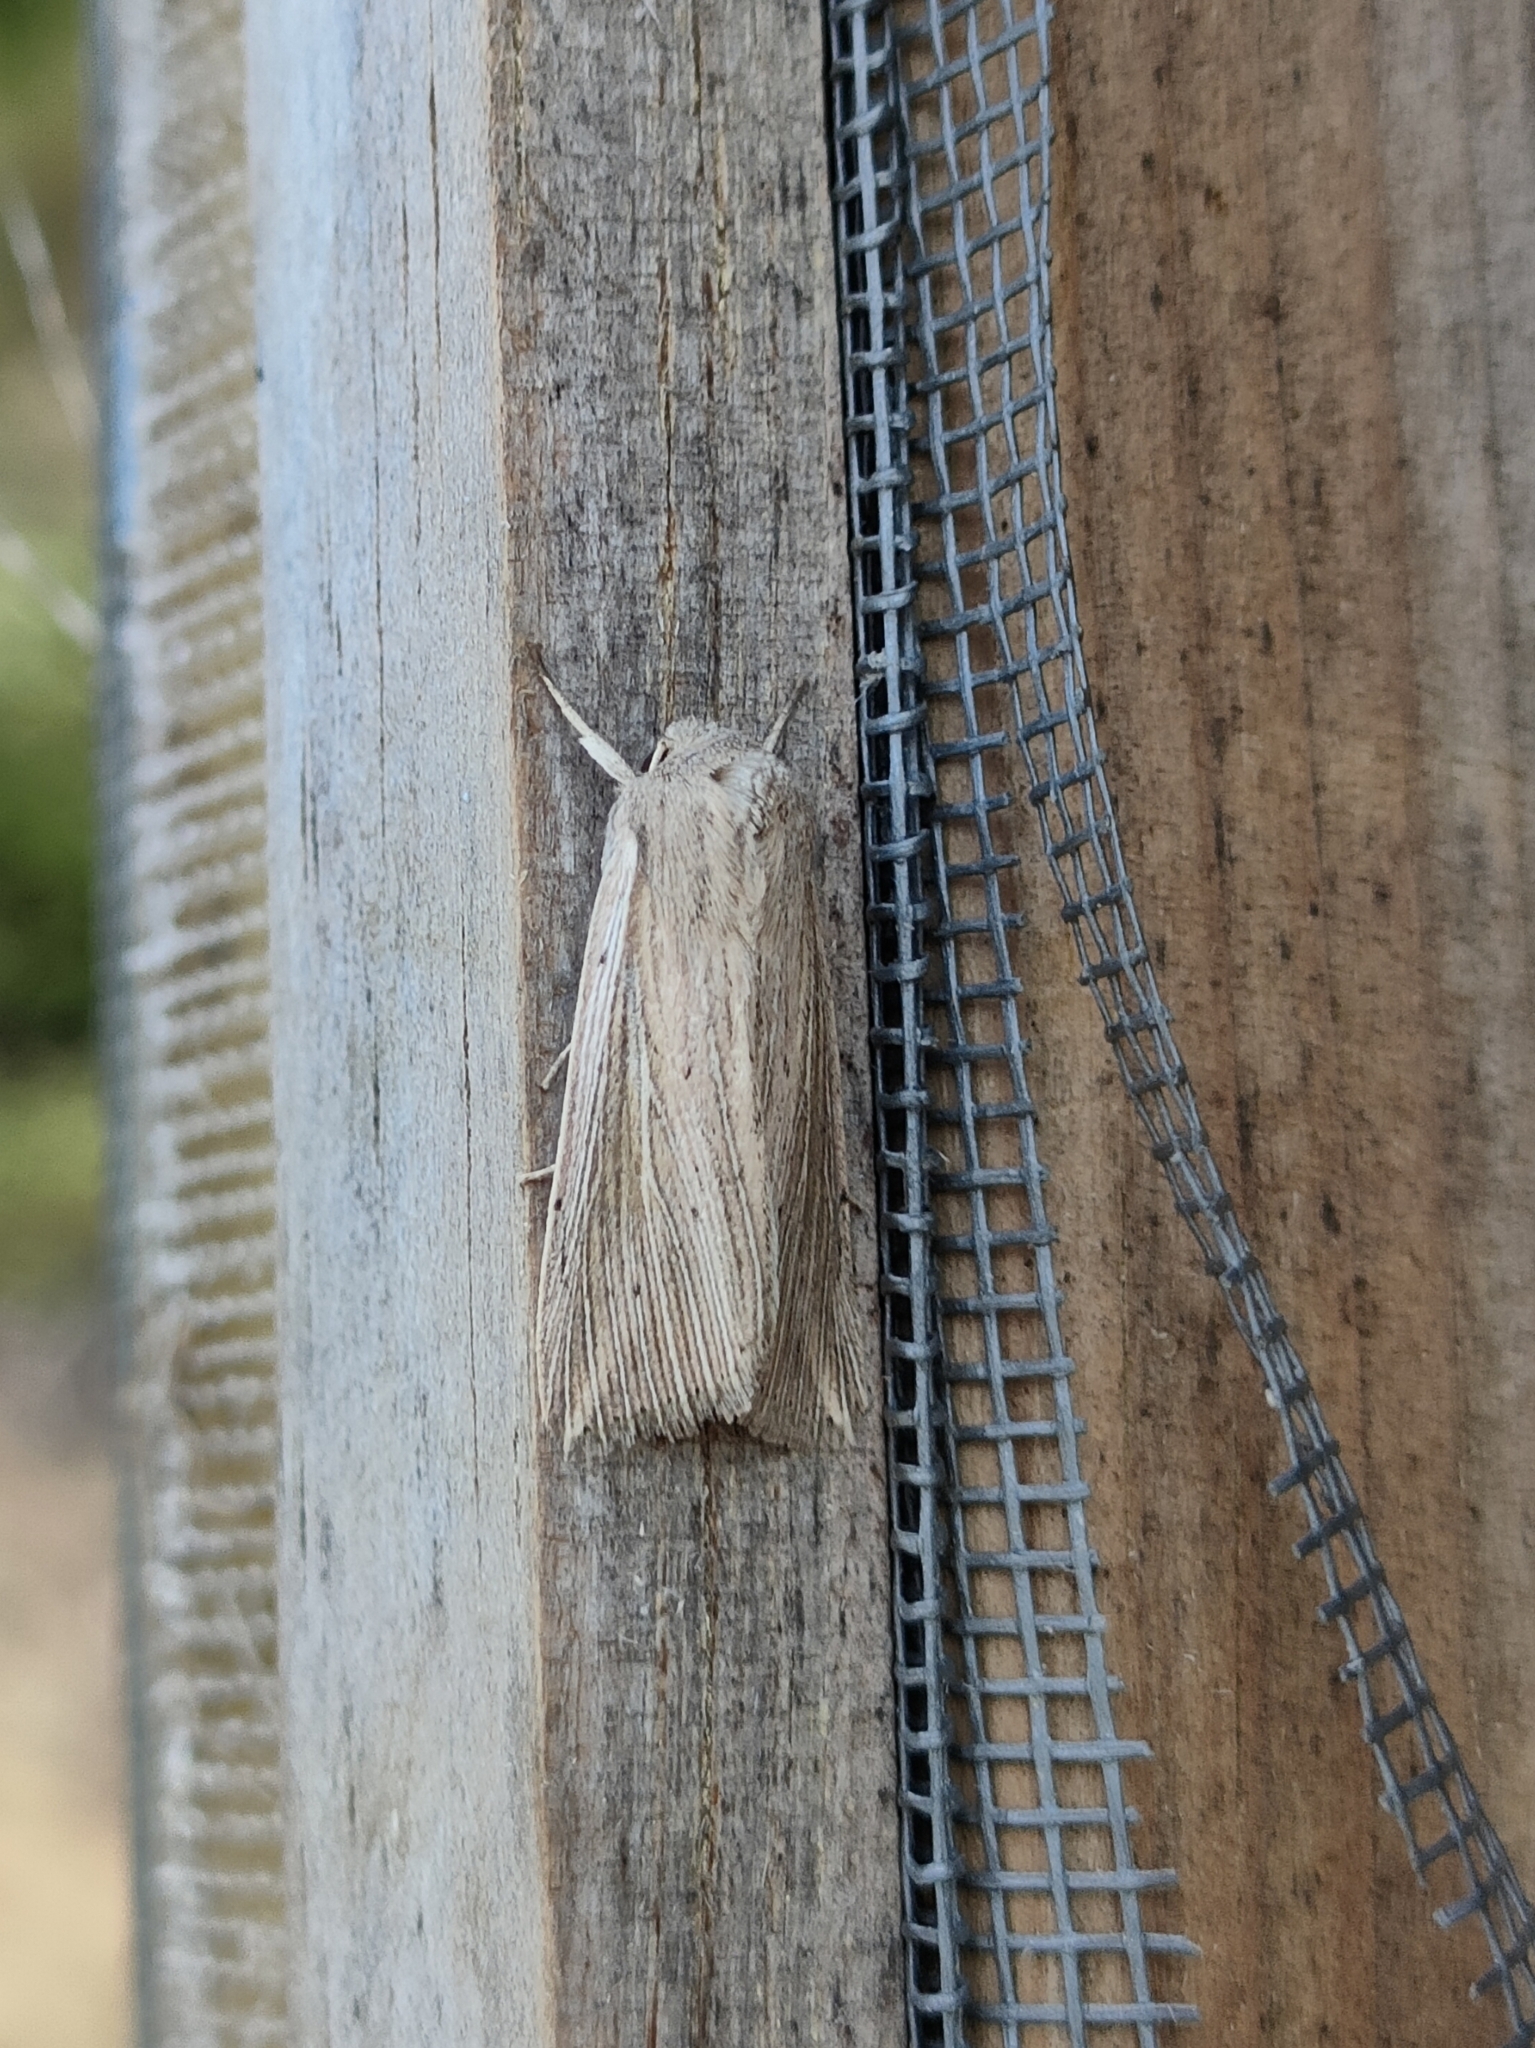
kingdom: Animalia
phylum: Arthropoda
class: Insecta
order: Lepidoptera
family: Noctuidae
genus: Mythimna
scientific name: Mythimna riparia
